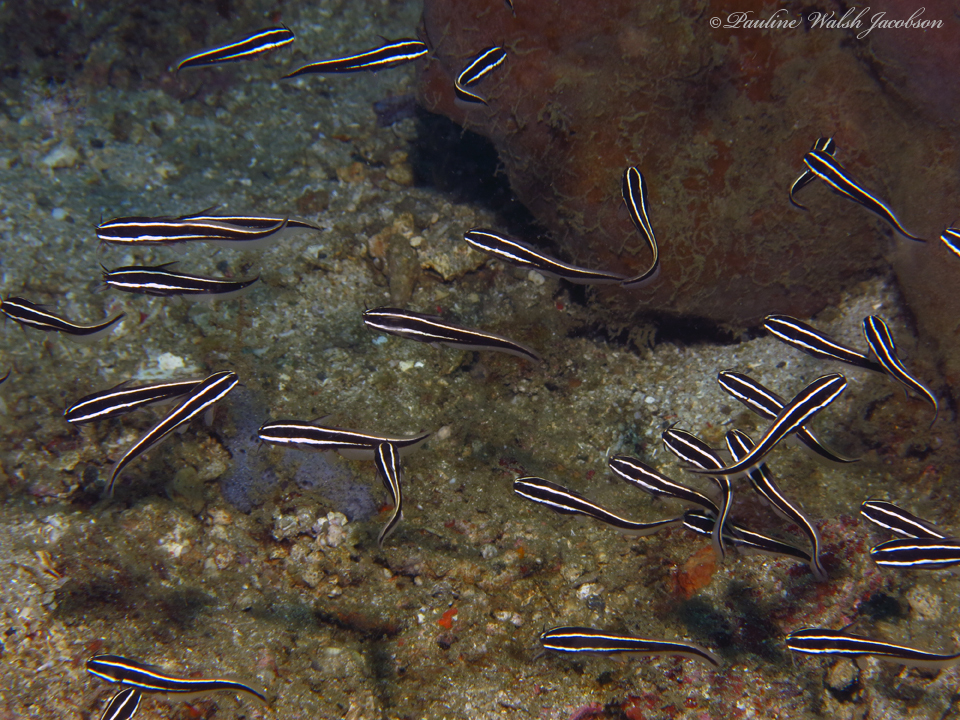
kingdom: Animalia
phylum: Chordata
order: Siluriformes
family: Plotosidae
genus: Plotosus
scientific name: Plotosus lineatus
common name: Striped eel catfish
